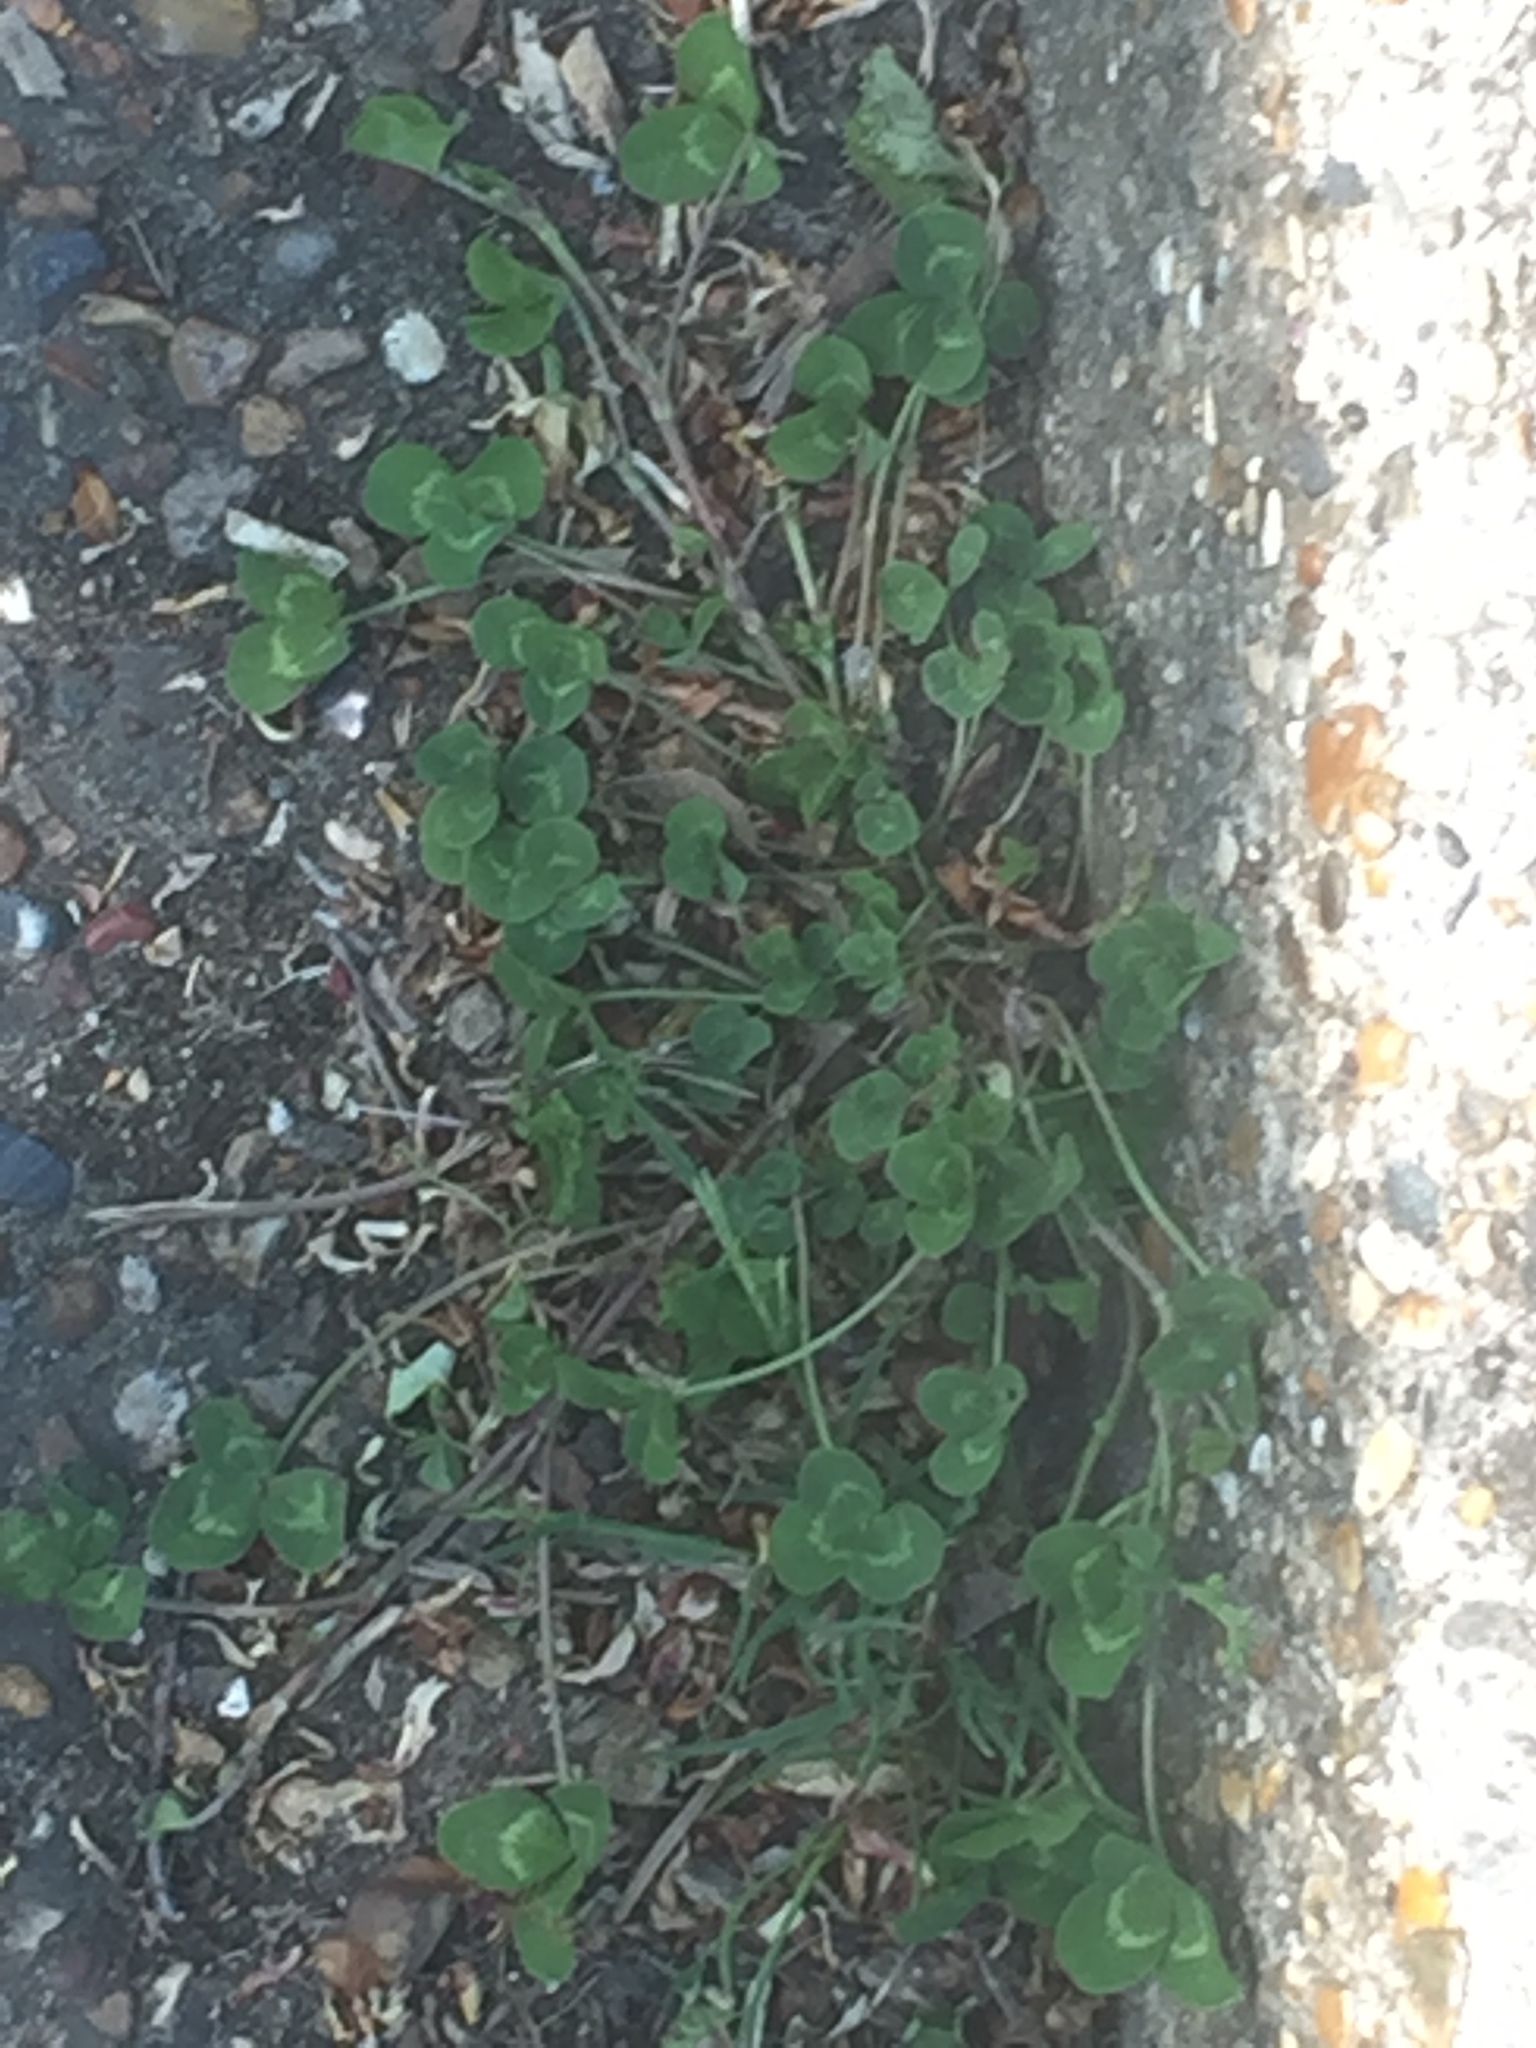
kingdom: Plantae
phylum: Tracheophyta
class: Magnoliopsida
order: Fabales
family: Fabaceae
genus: Trifolium
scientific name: Trifolium repens
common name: White clover
